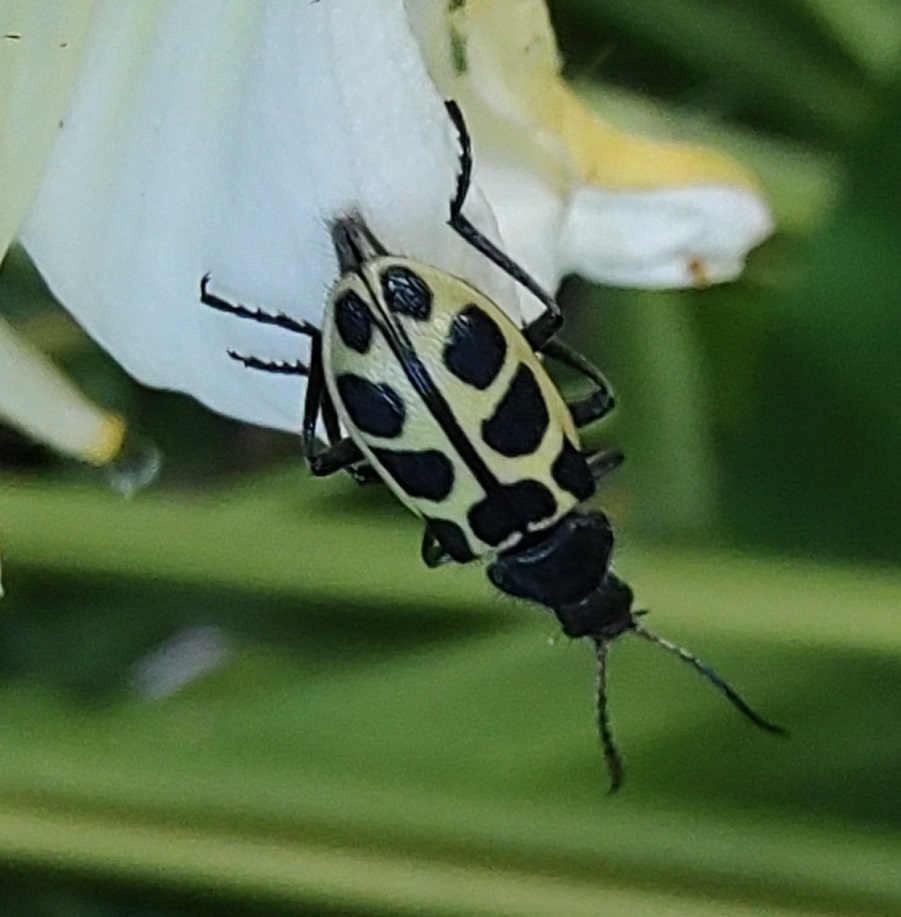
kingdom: Animalia
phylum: Arthropoda
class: Insecta
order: Coleoptera
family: Melyridae
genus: Astylus
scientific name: Astylus
